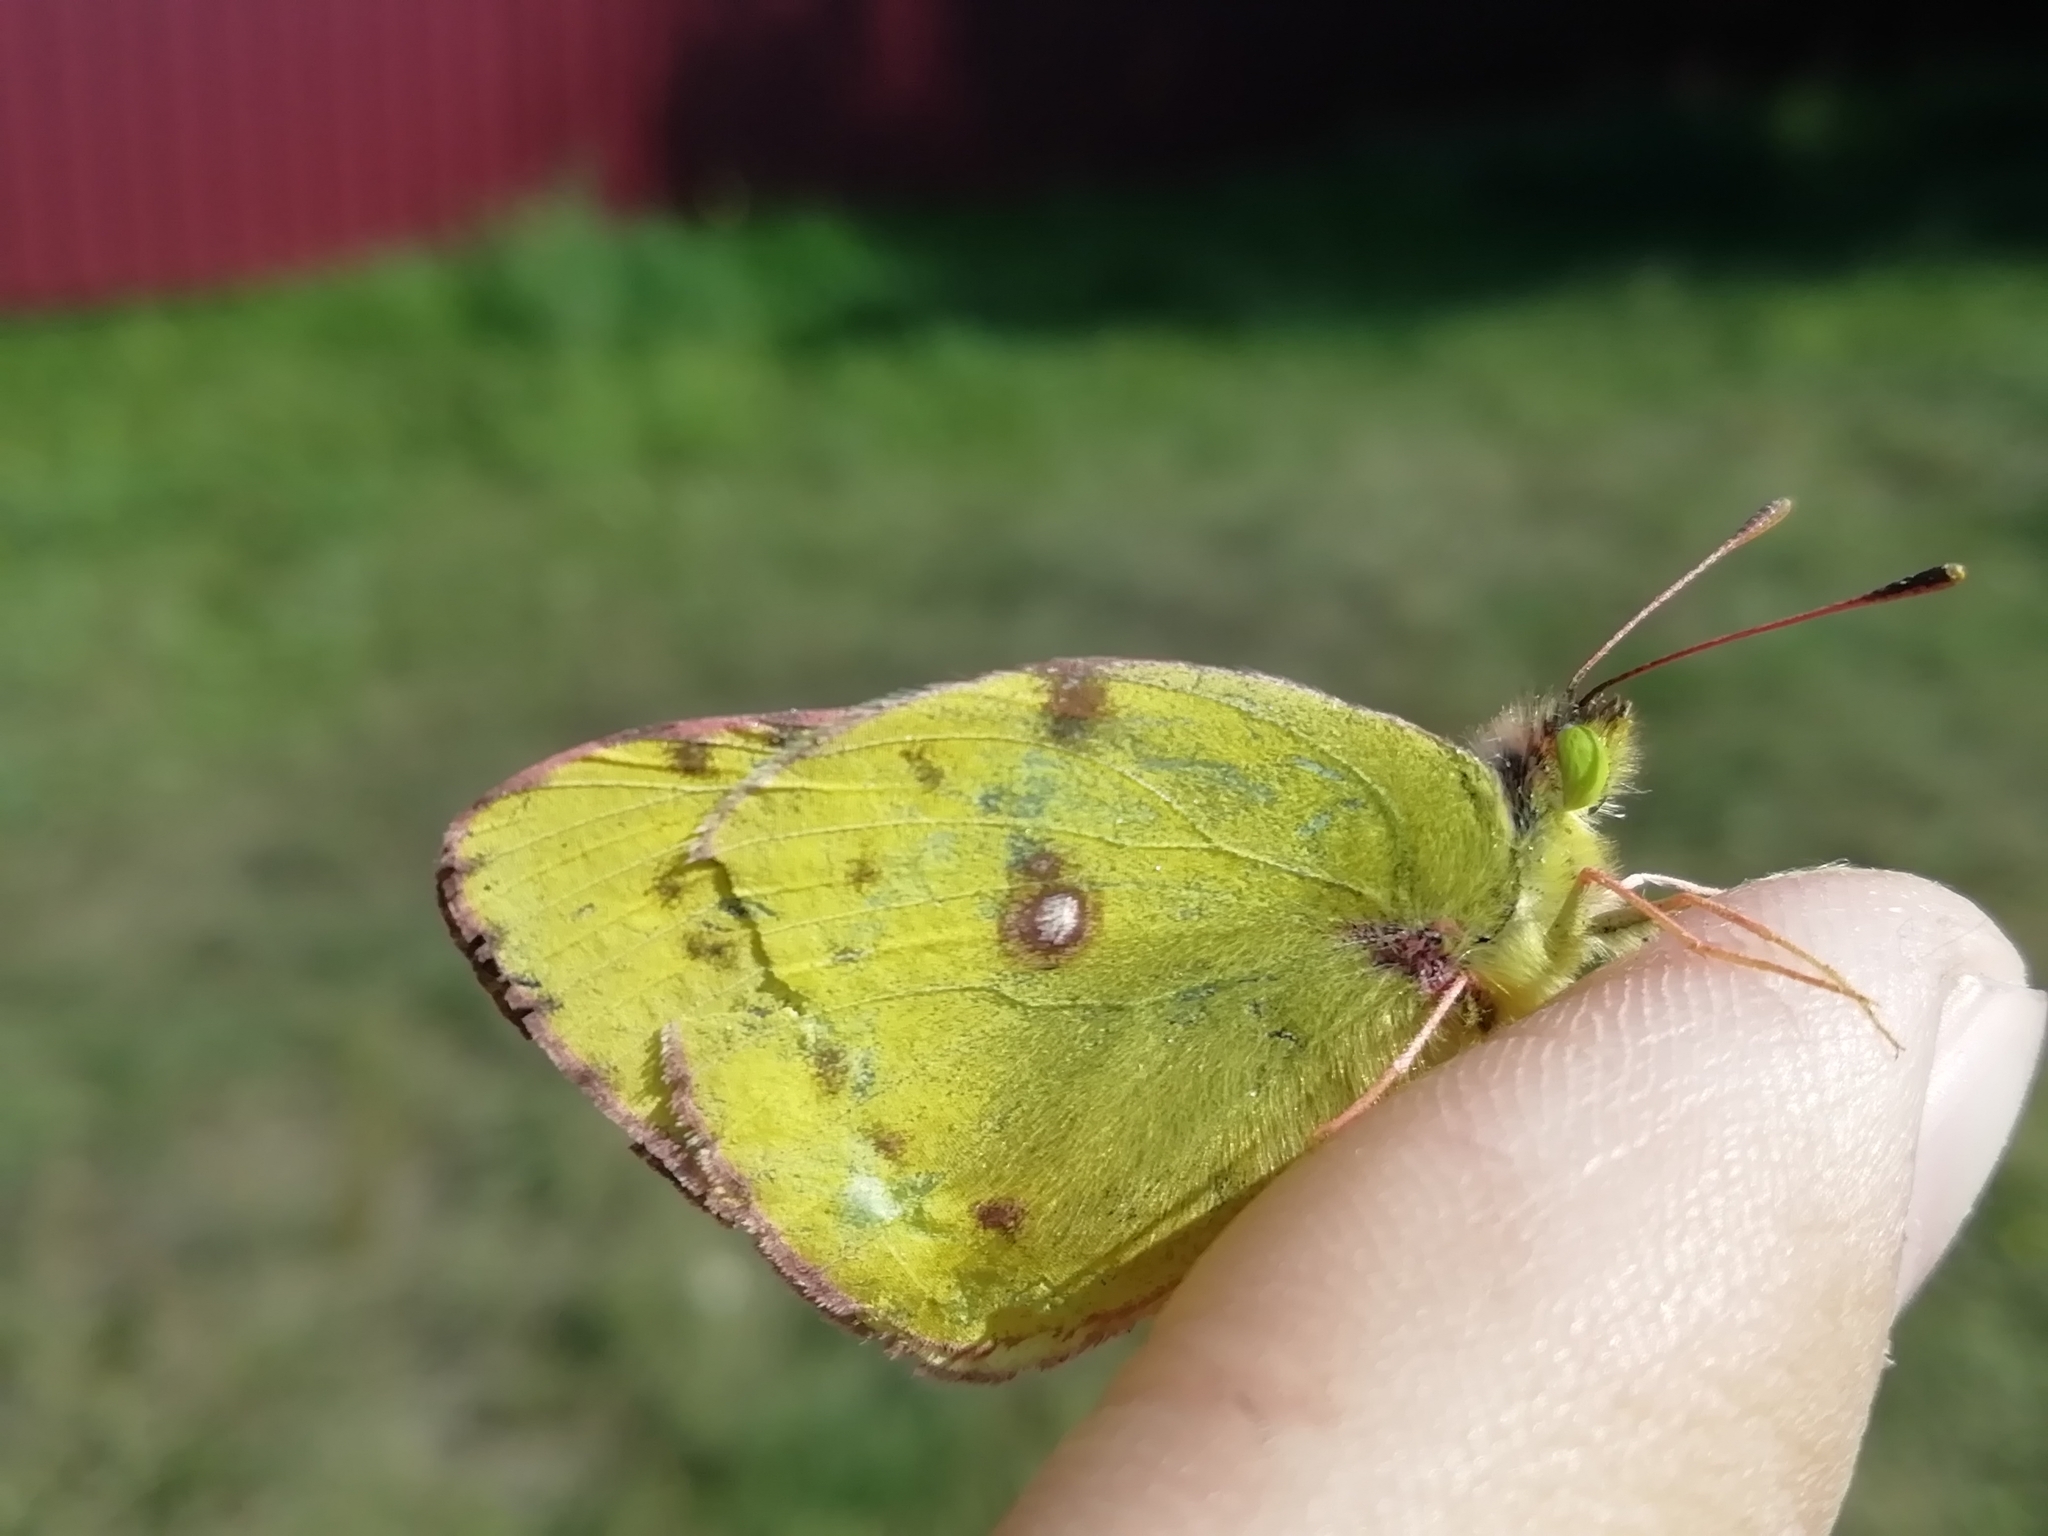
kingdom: Animalia
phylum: Arthropoda
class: Insecta
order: Lepidoptera
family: Pieridae
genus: Colias
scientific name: Colias hyale
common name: Pale clouded yellow
